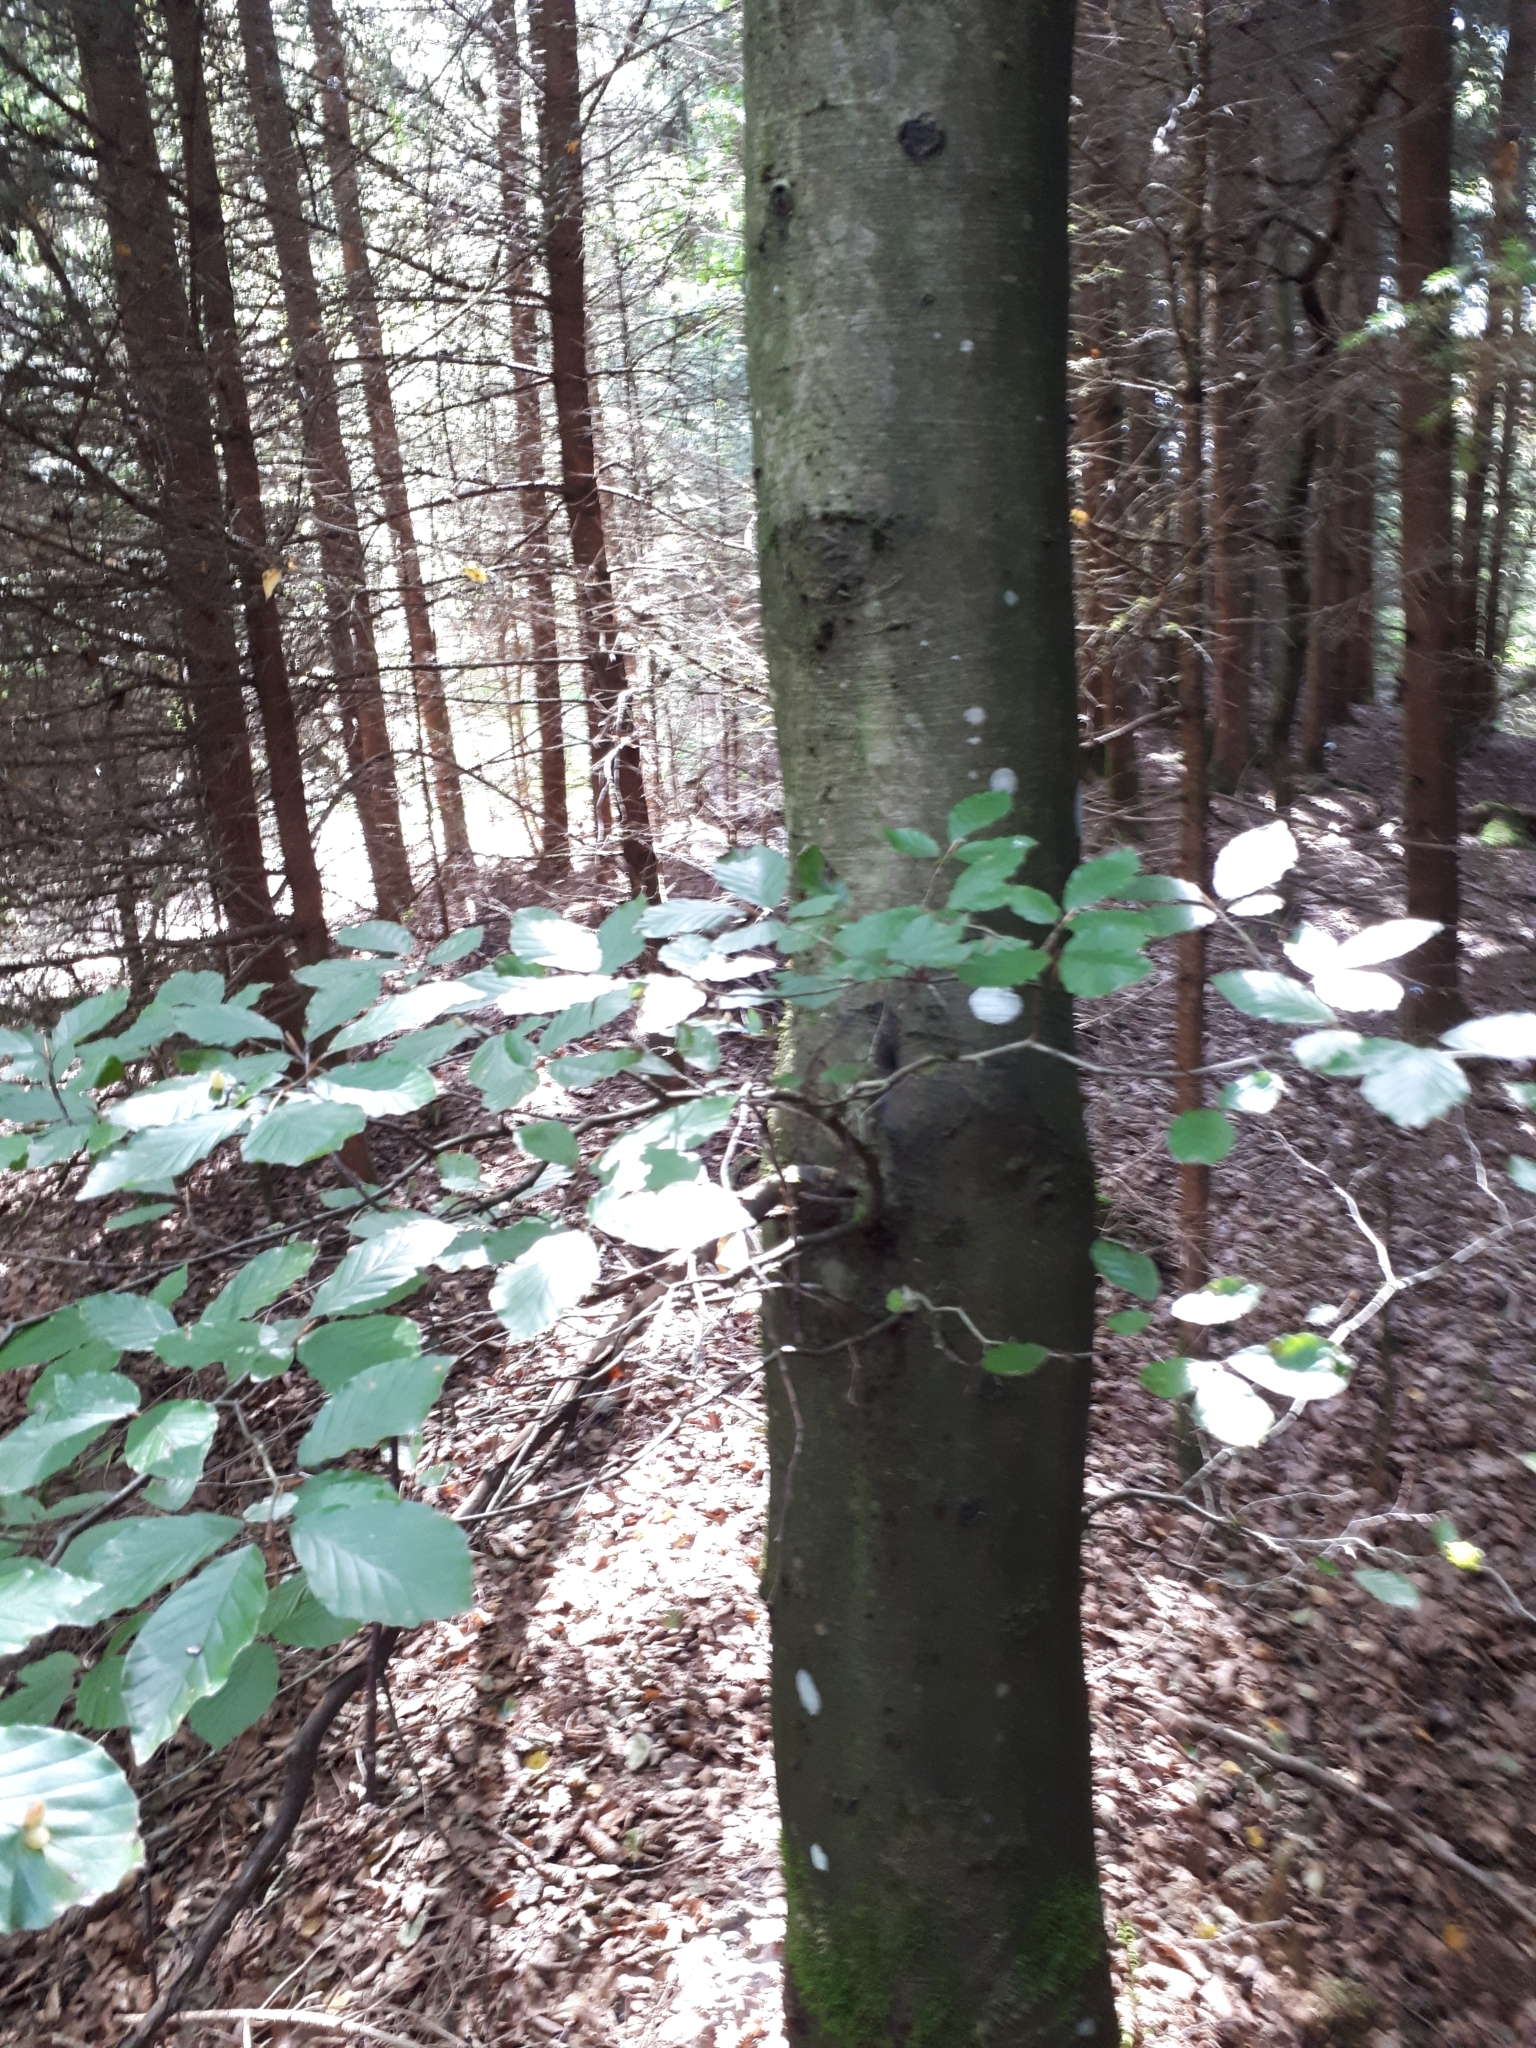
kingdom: Plantae
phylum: Tracheophyta
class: Magnoliopsida
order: Fagales
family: Fagaceae
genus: Fagus
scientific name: Fagus sylvatica
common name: Beech
